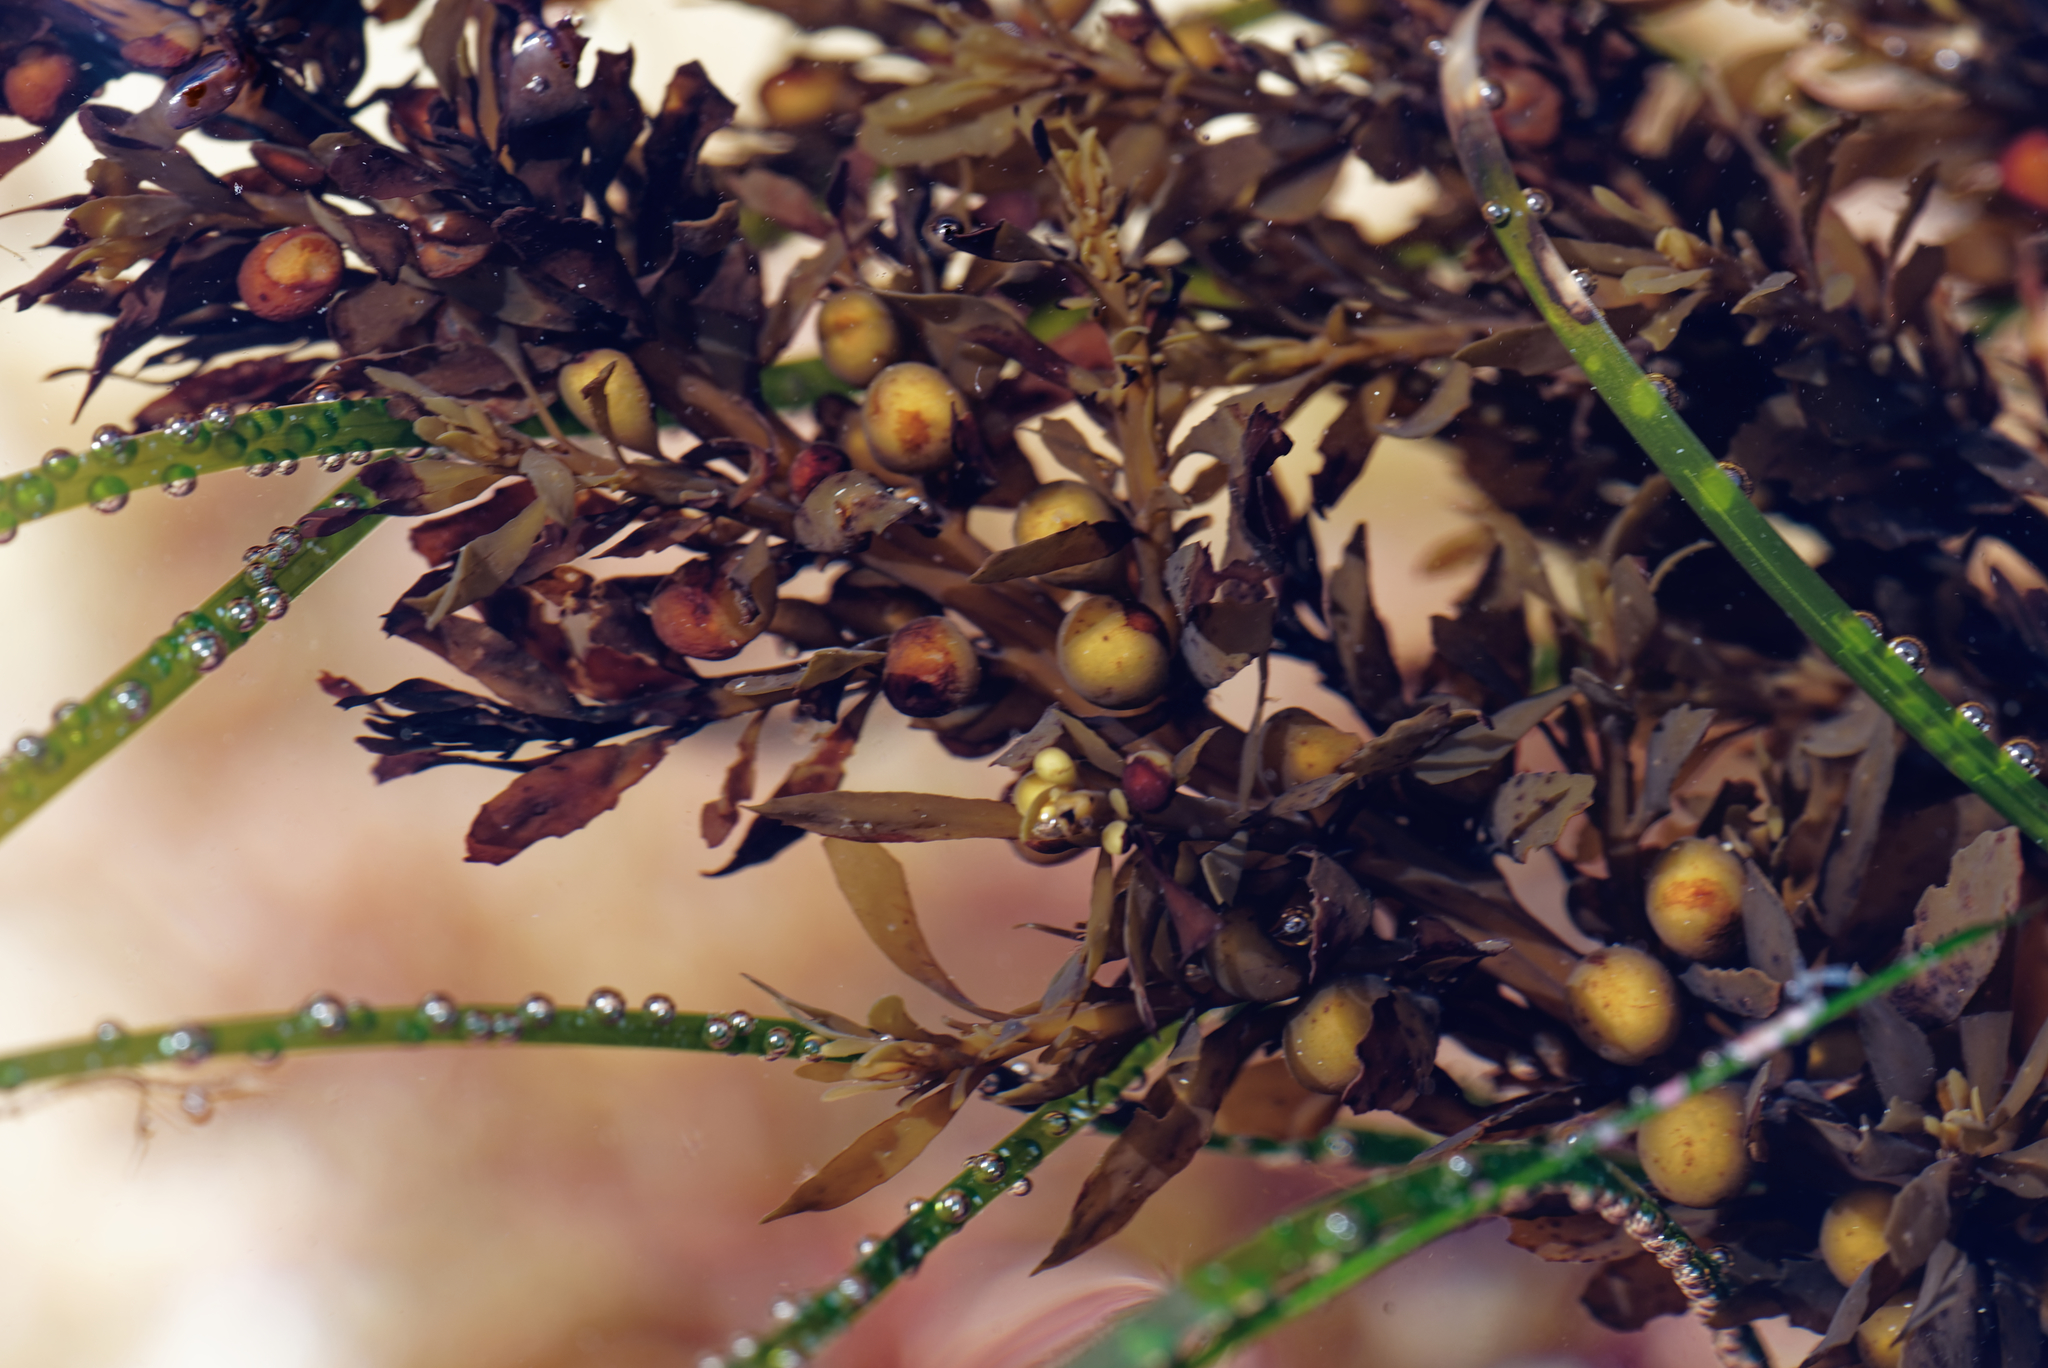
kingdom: Chromista
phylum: Ochrophyta
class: Phaeophyceae
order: Fucales
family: Sargassaceae
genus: Sargassum
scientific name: Sargassum muticum
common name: Japweed
